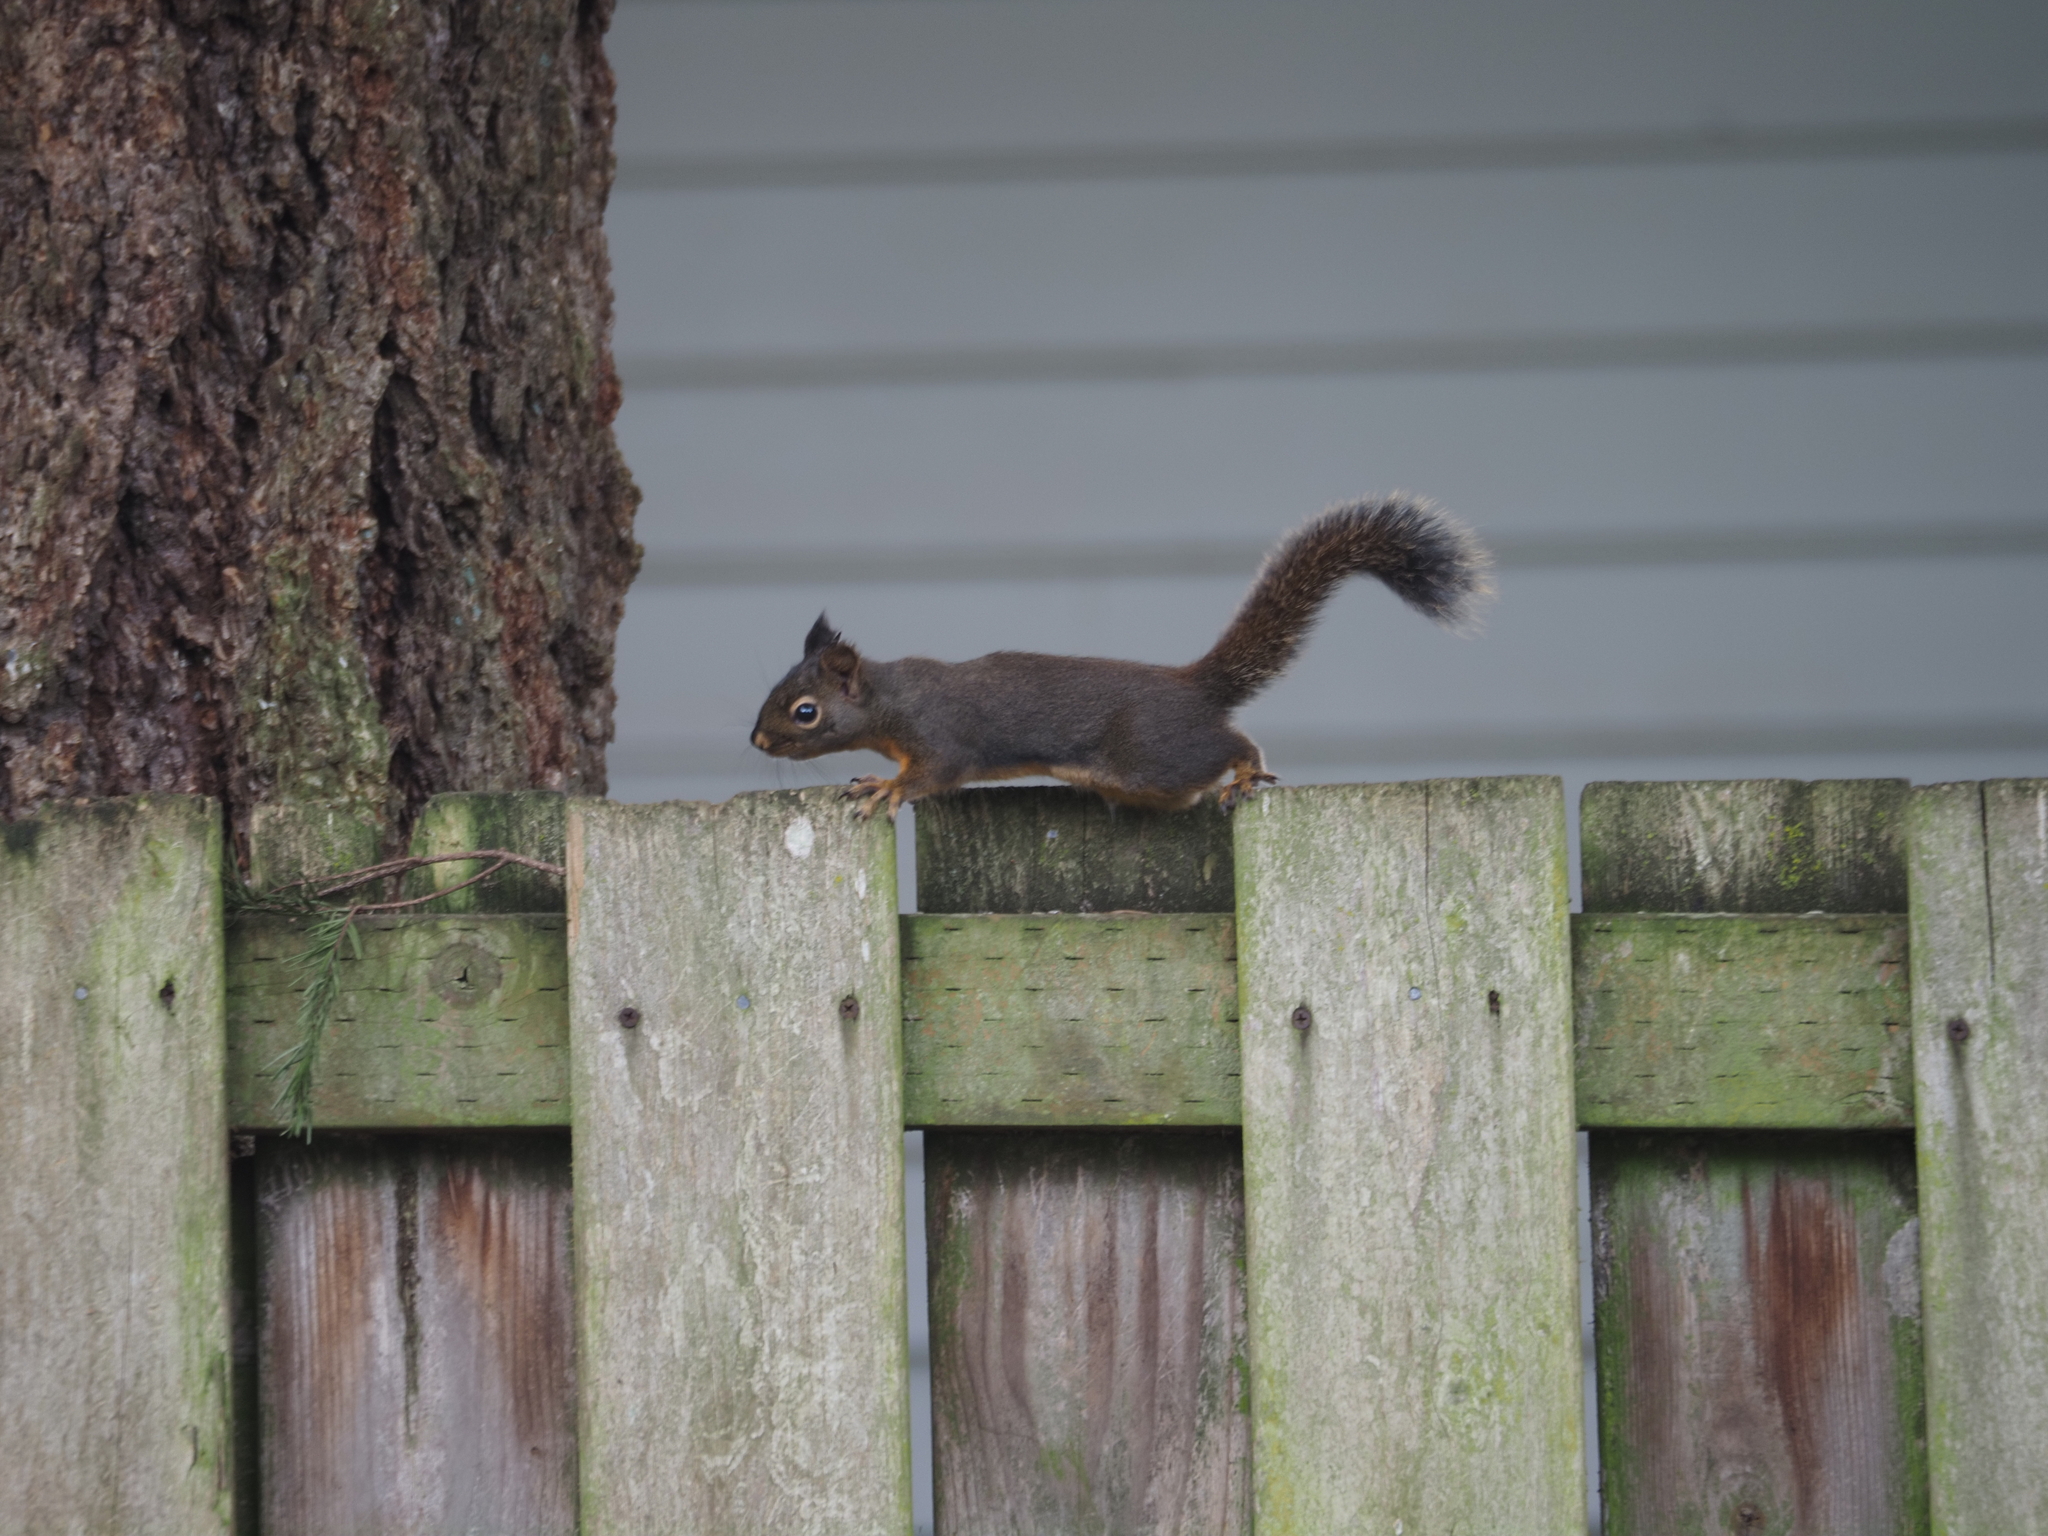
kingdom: Animalia
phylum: Chordata
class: Mammalia
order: Rodentia
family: Sciuridae
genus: Tamiasciurus
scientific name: Tamiasciurus douglasii
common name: Douglas's squirrel
